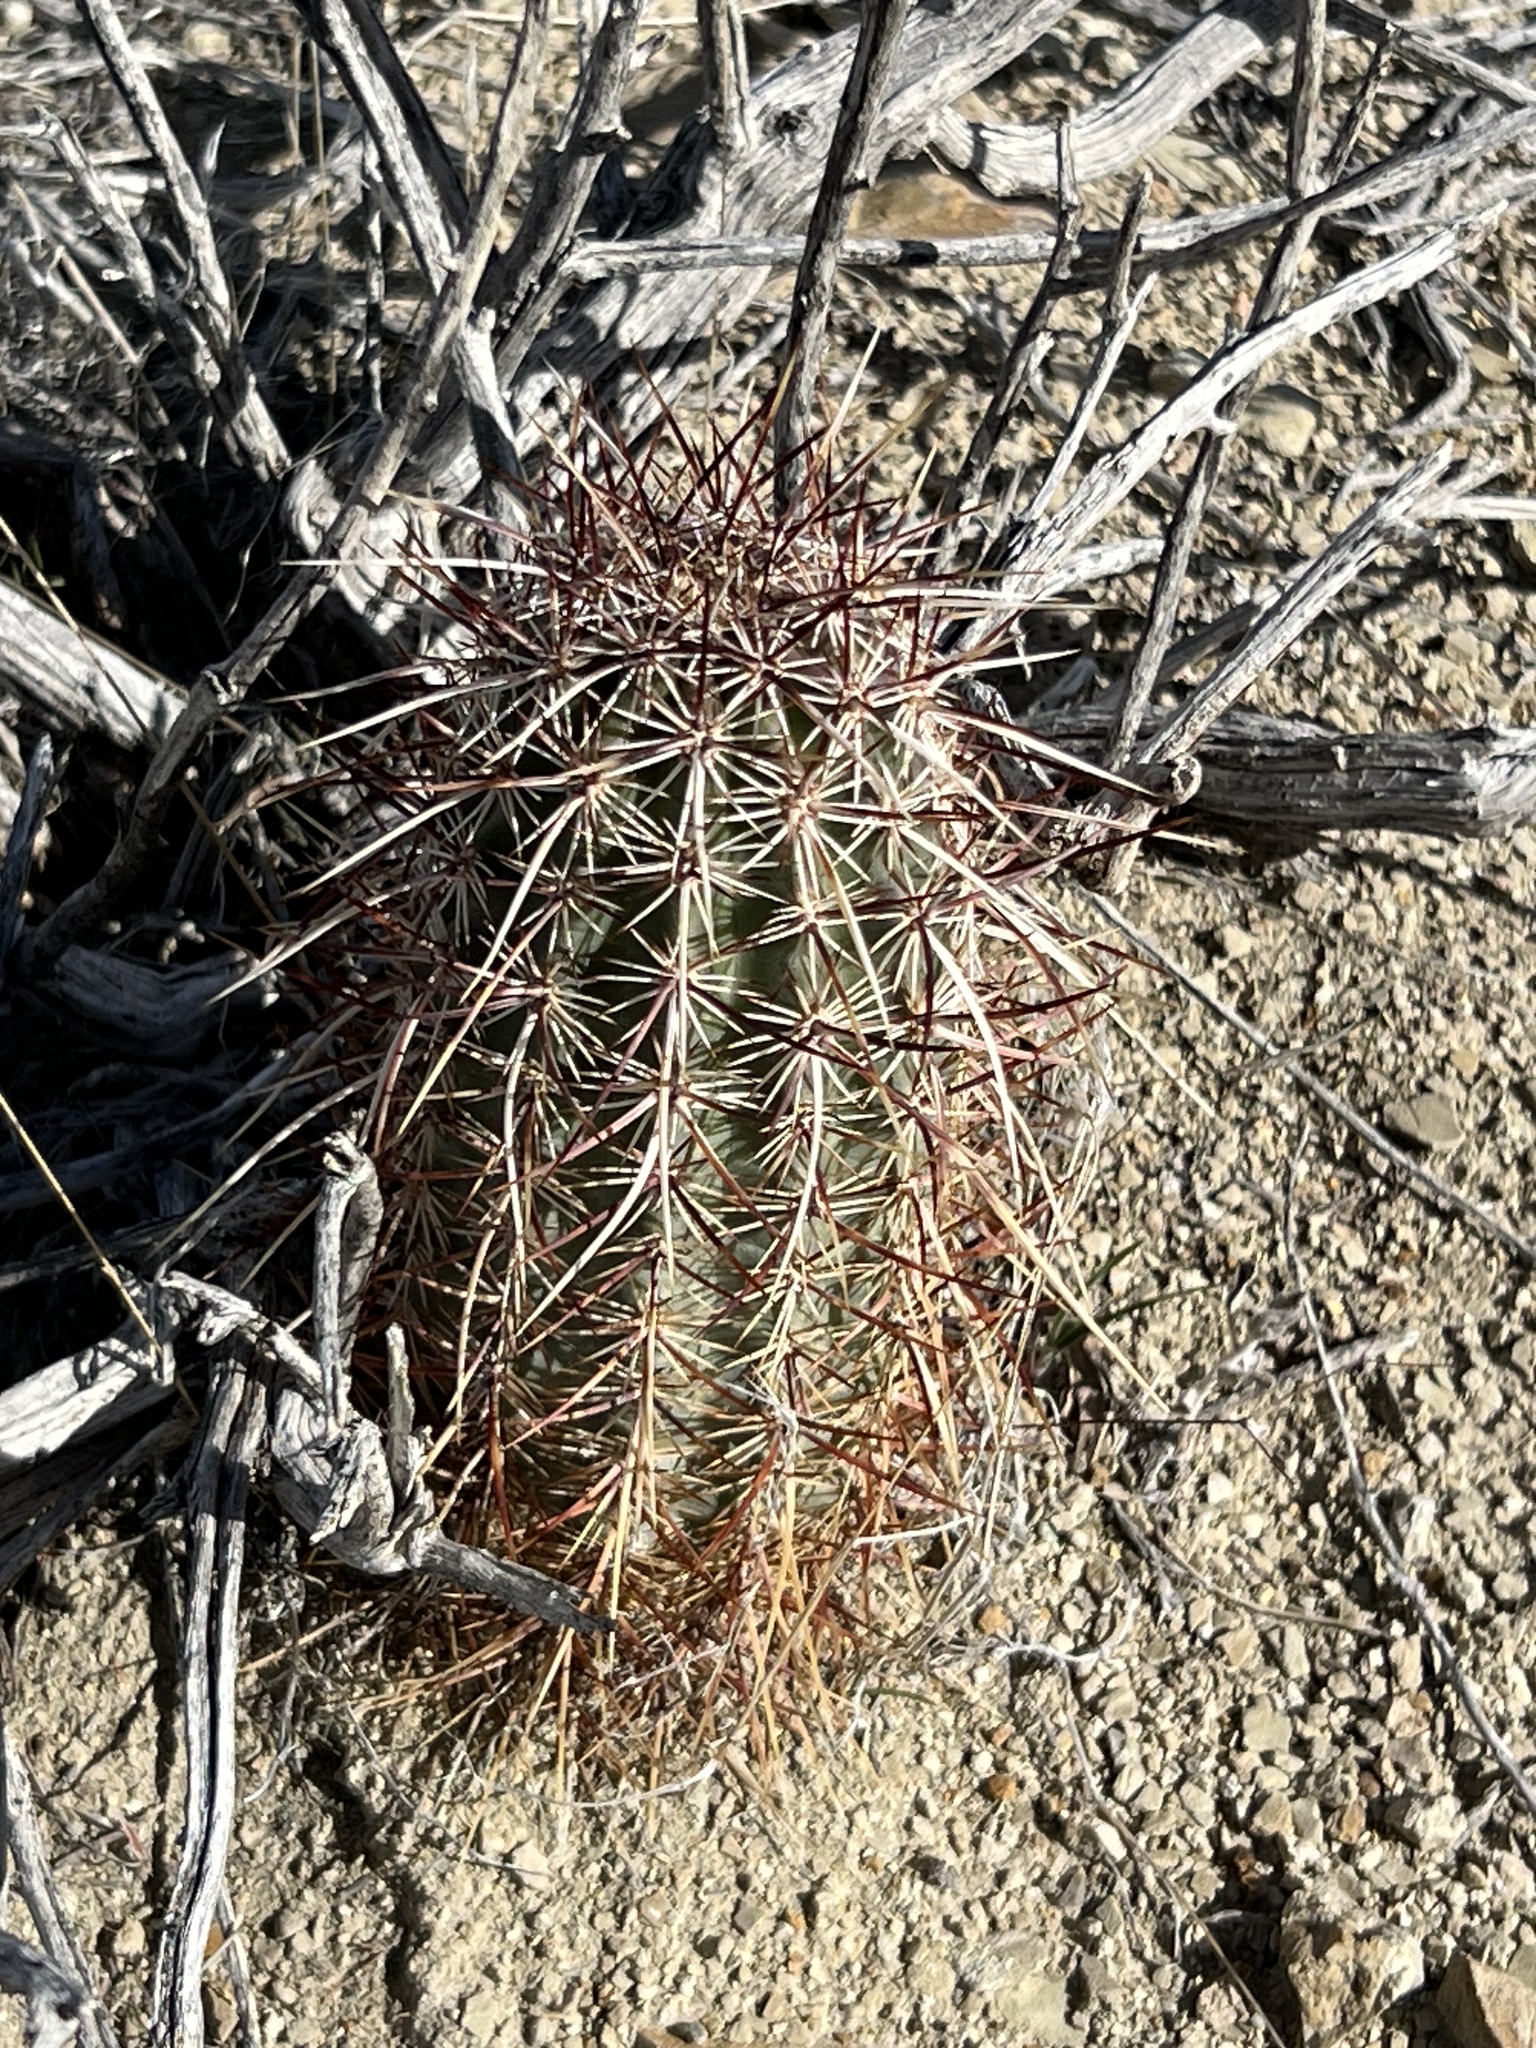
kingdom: Plantae
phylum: Tracheophyta
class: Magnoliopsida
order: Caryophyllales
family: Cactaceae
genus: Echinocereus
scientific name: Echinocereus engelmannii
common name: Engelmann's hedgehog cactus
